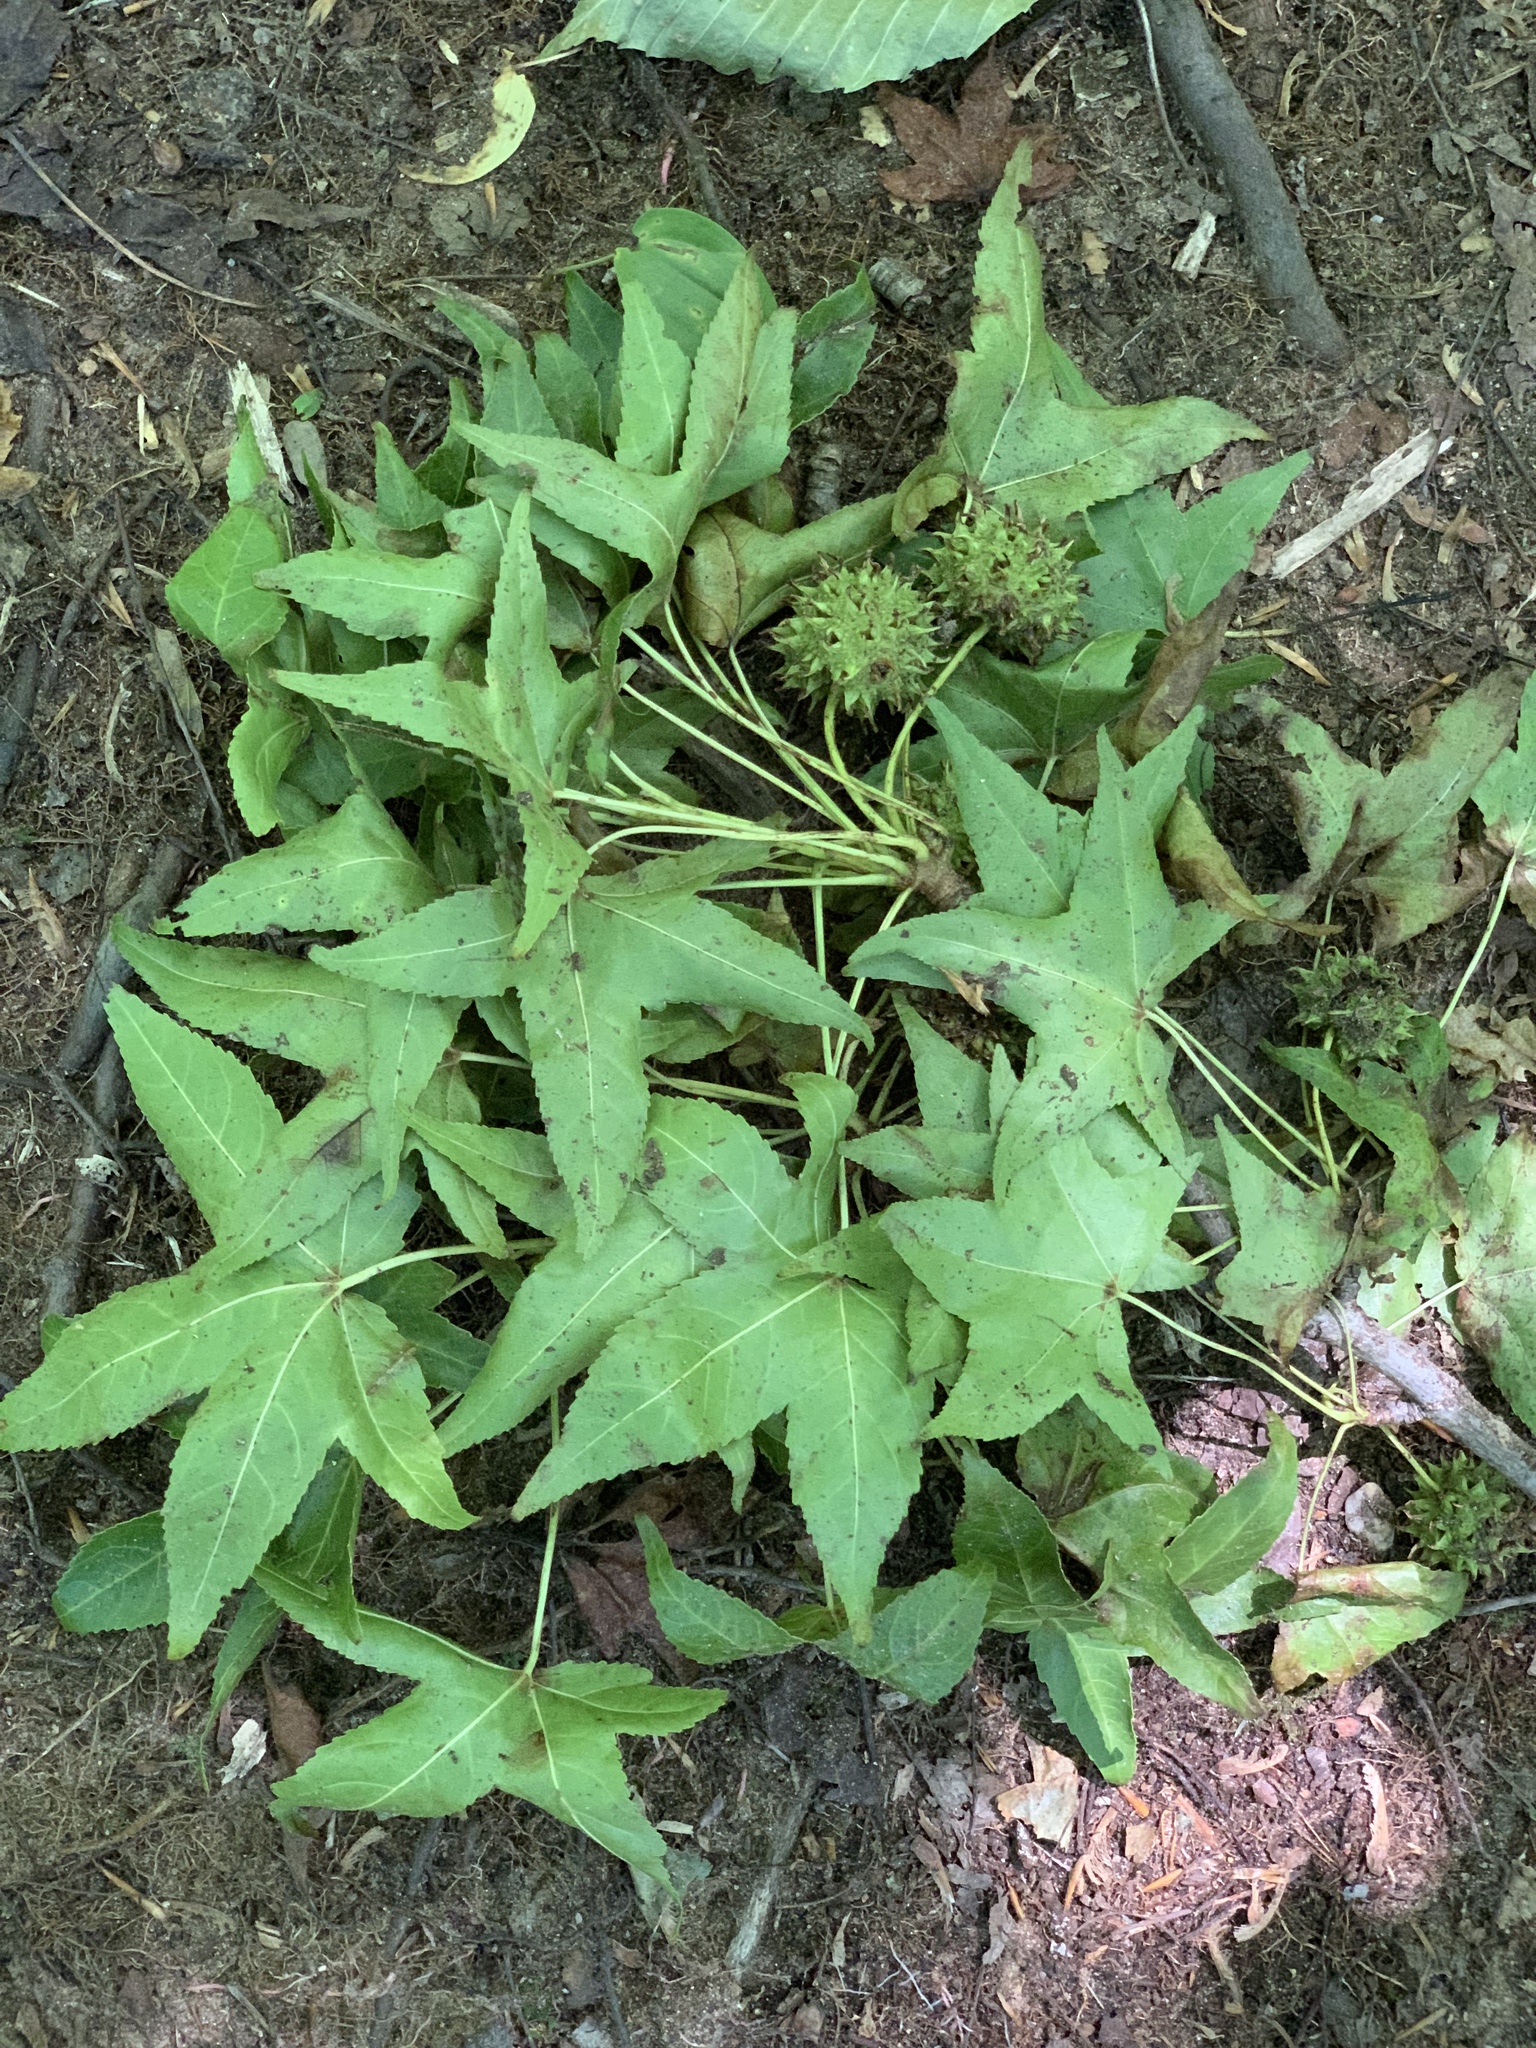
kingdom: Plantae
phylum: Tracheophyta
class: Magnoliopsida
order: Saxifragales
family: Altingiaceae
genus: Liquidambar
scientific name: Liquidambar styraciflua
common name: Sweet gum
